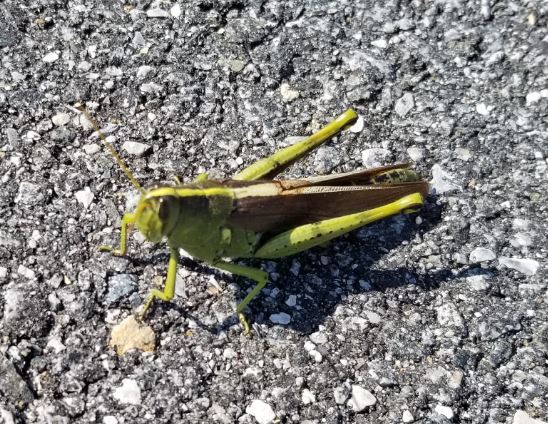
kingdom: Animalia
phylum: Arthropoda
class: Insecta
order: Orthoptera
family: Acrididae
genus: Schistocerca
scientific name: Schistocerca obscura
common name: Obscure bird grasshopper
